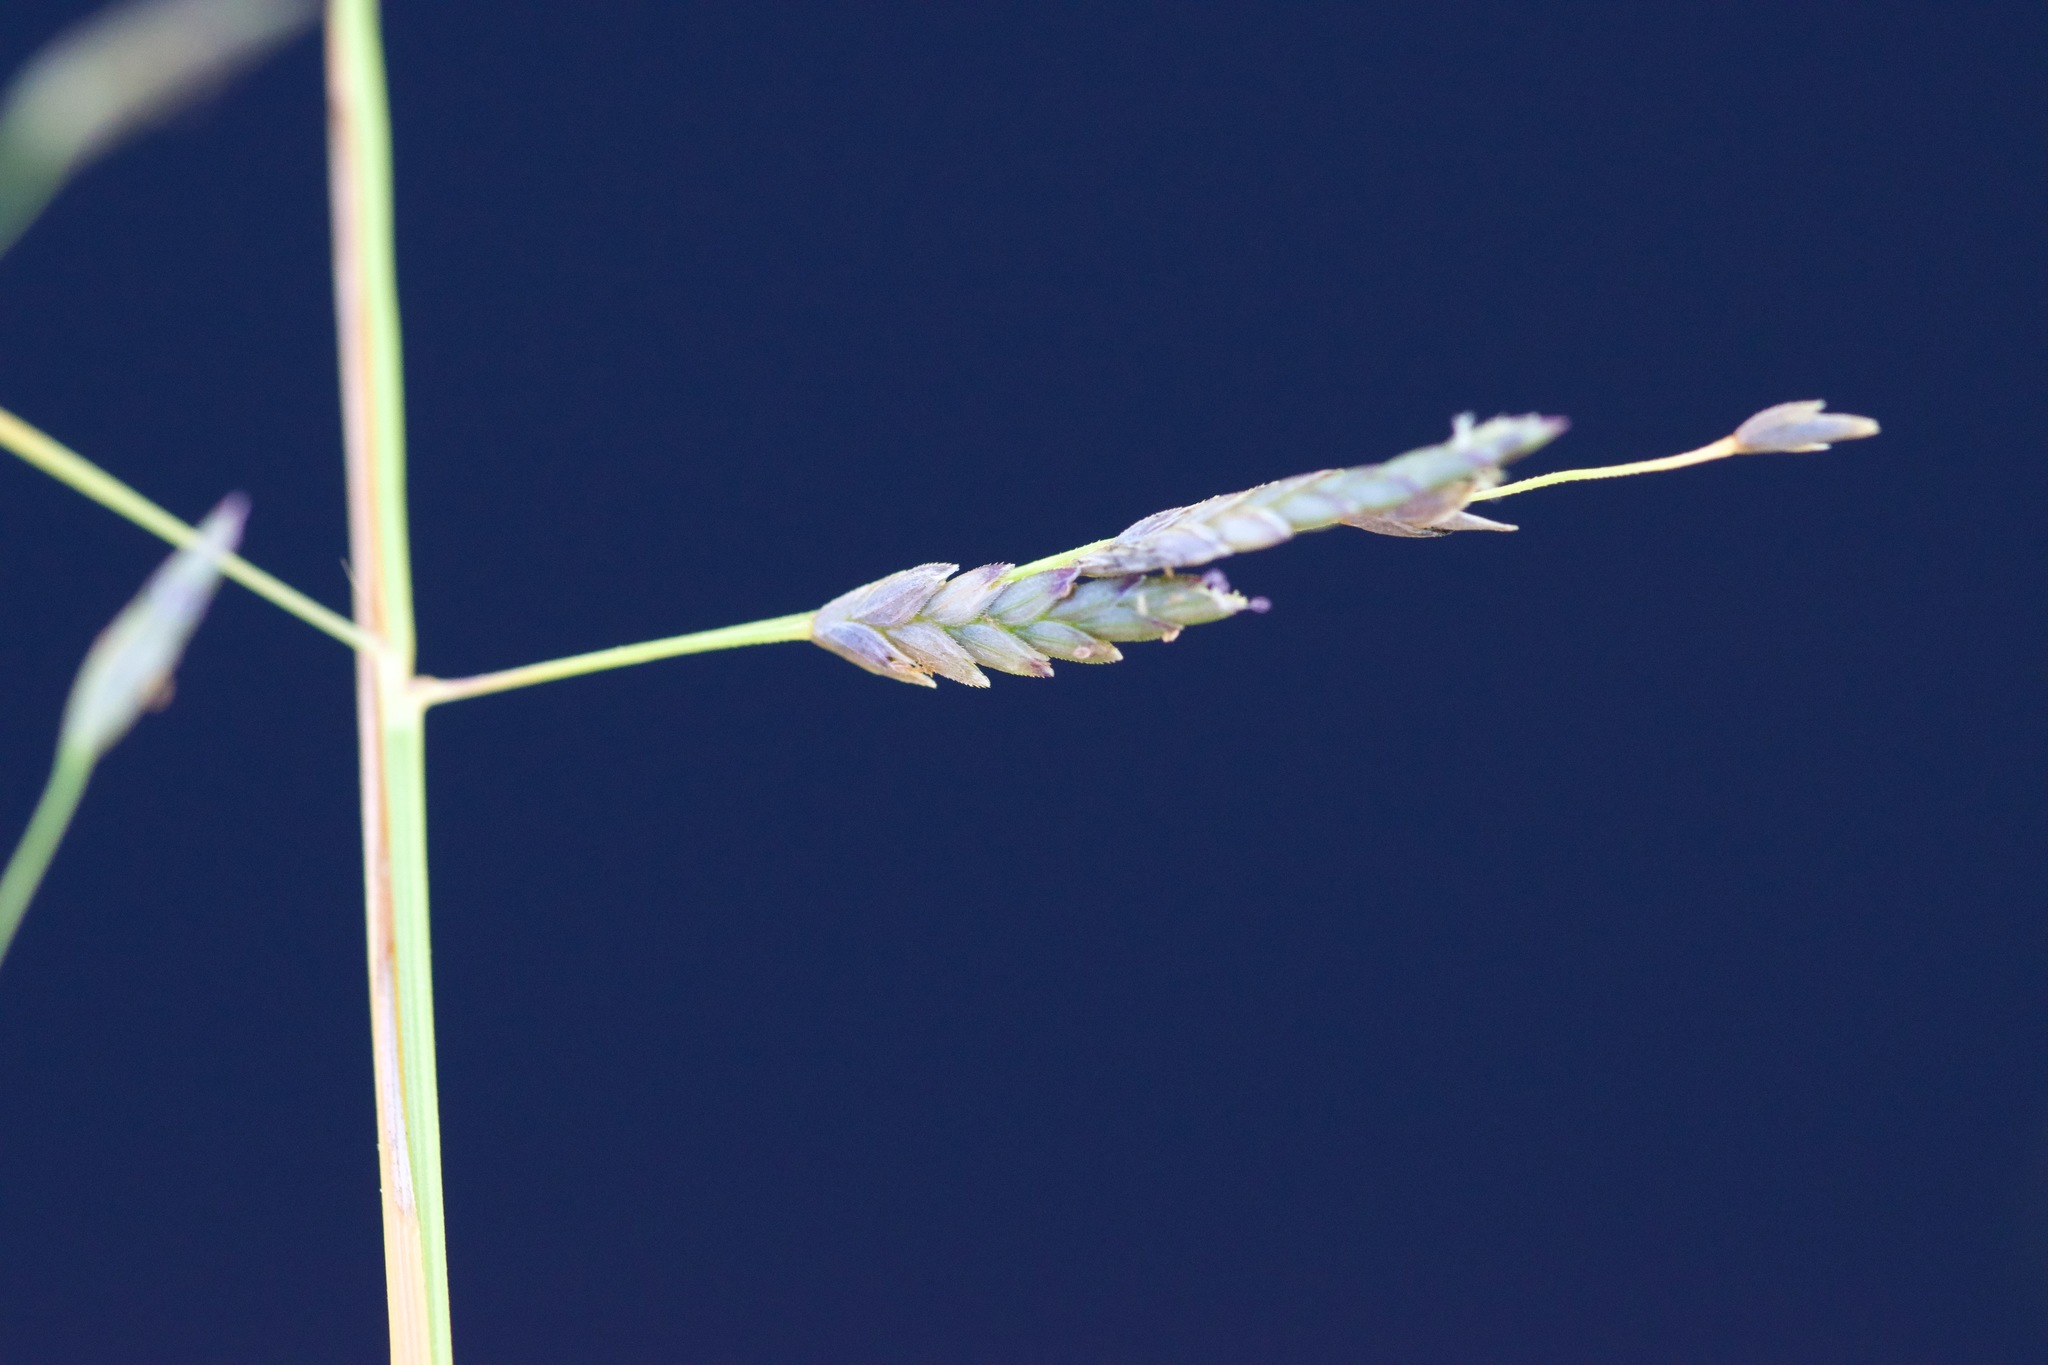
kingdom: Plantae
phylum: Tracheophyta
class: Liliopsida
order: Poales
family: Poaceae
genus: Eragrostis
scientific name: Eragrostis pectinacea
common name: Tufted lovegrass
